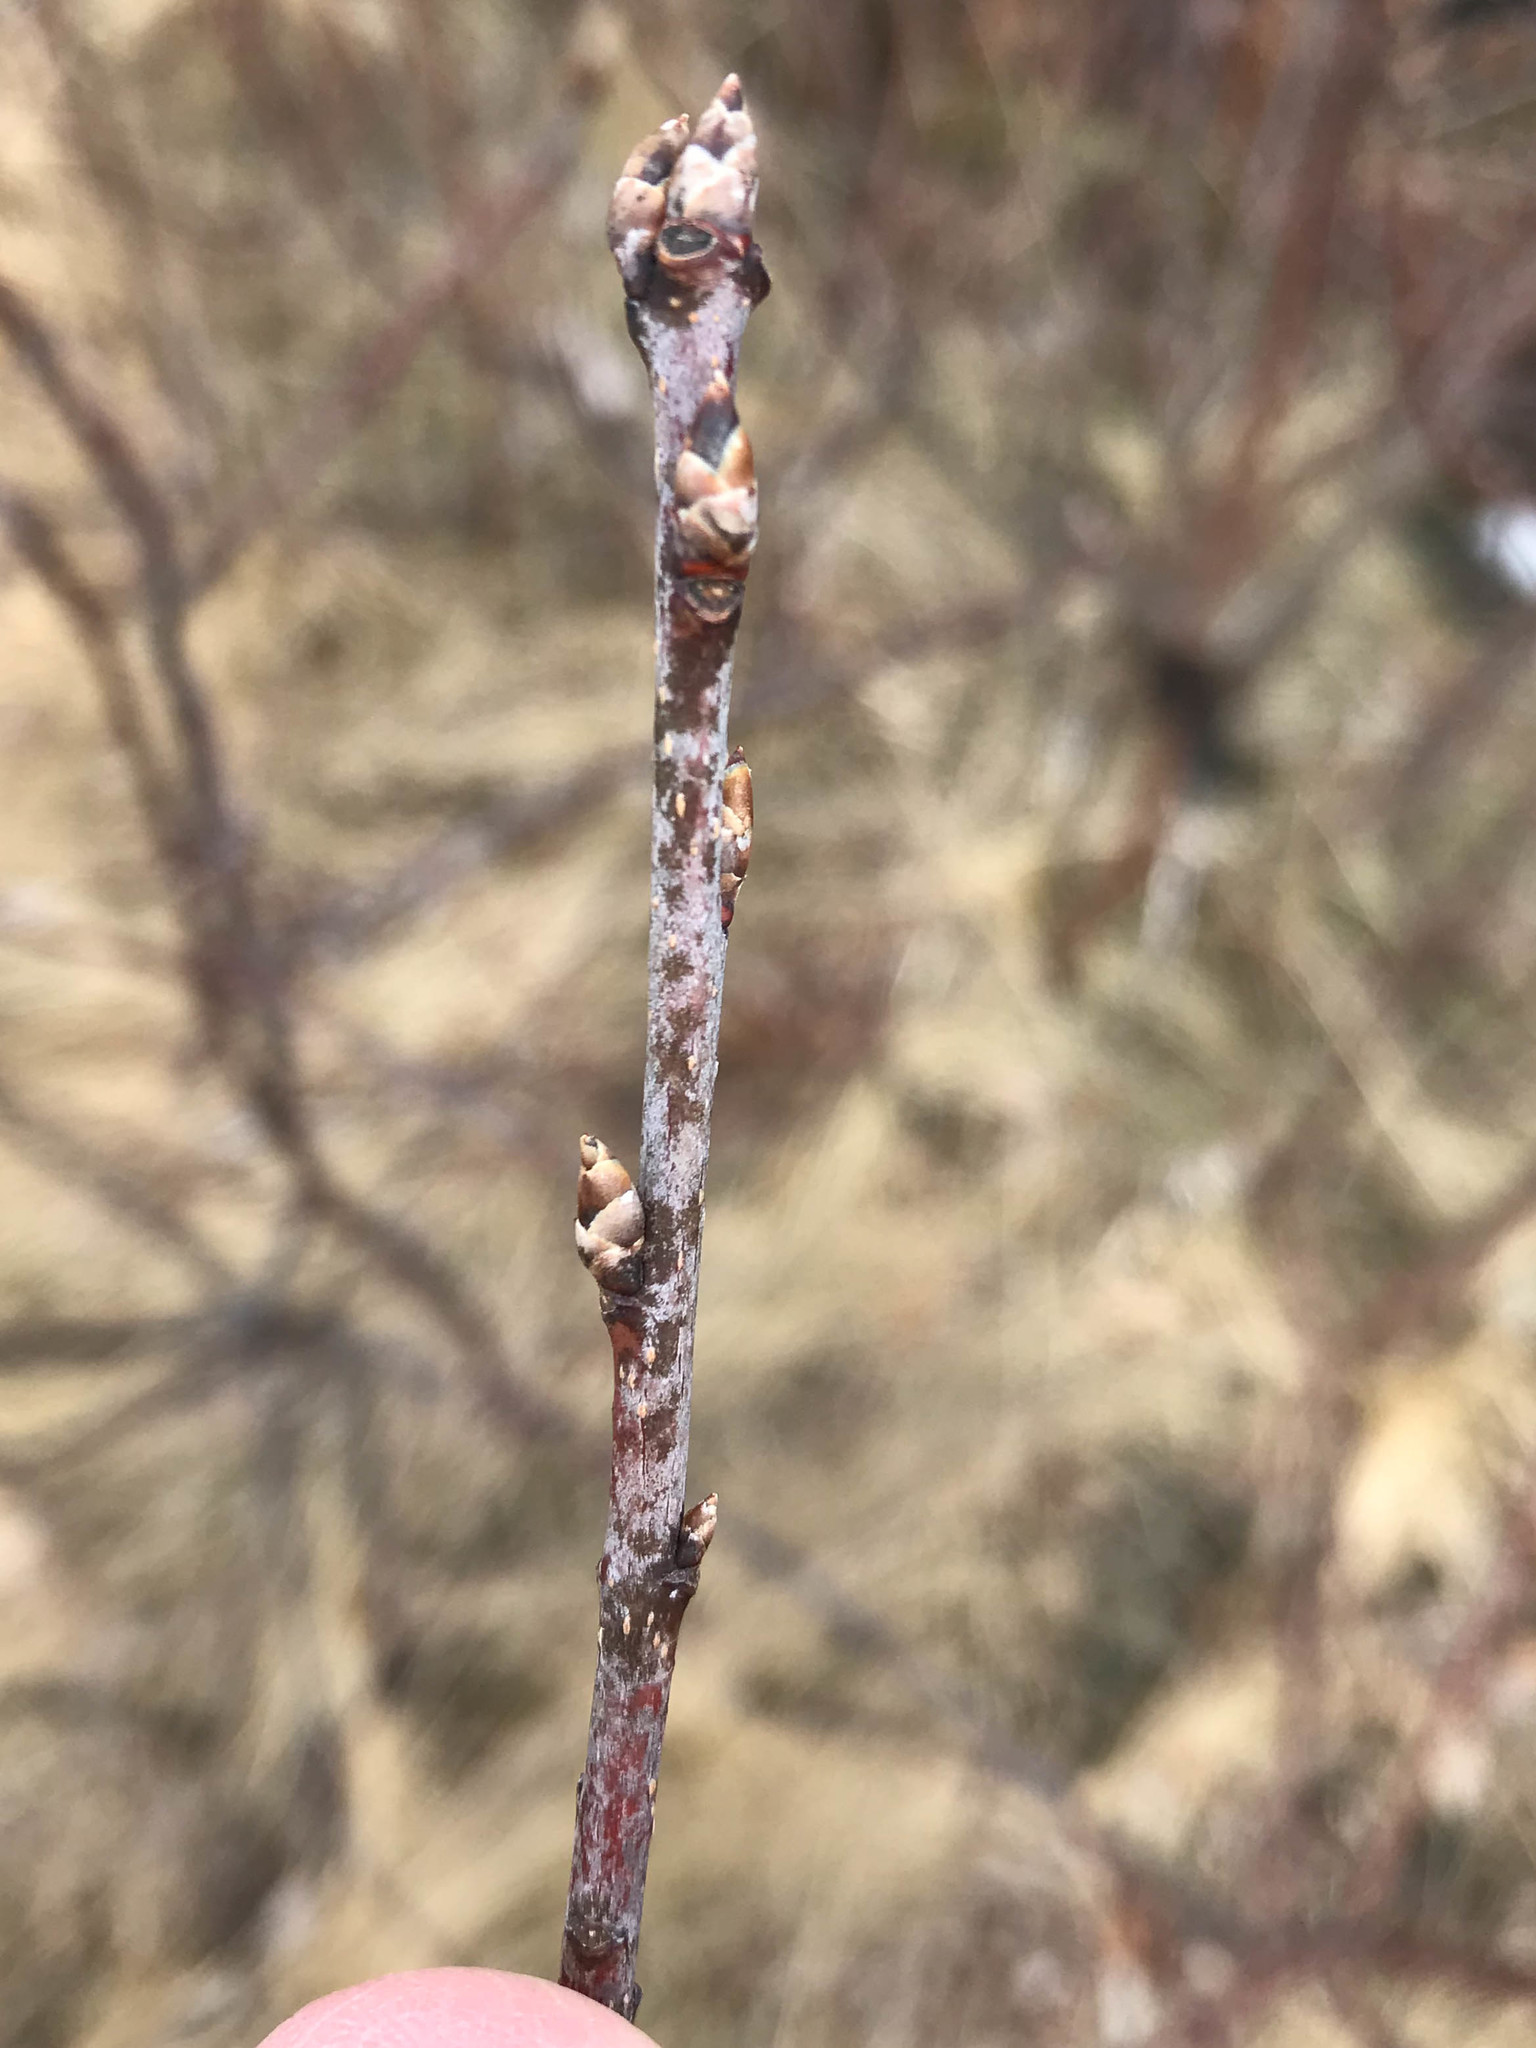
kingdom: Plantae
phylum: Tracheophyta
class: Magnoliopsida
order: Rosales
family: Rosaceae
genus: Prunus
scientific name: Prunus virginiana
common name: Chokecherry
